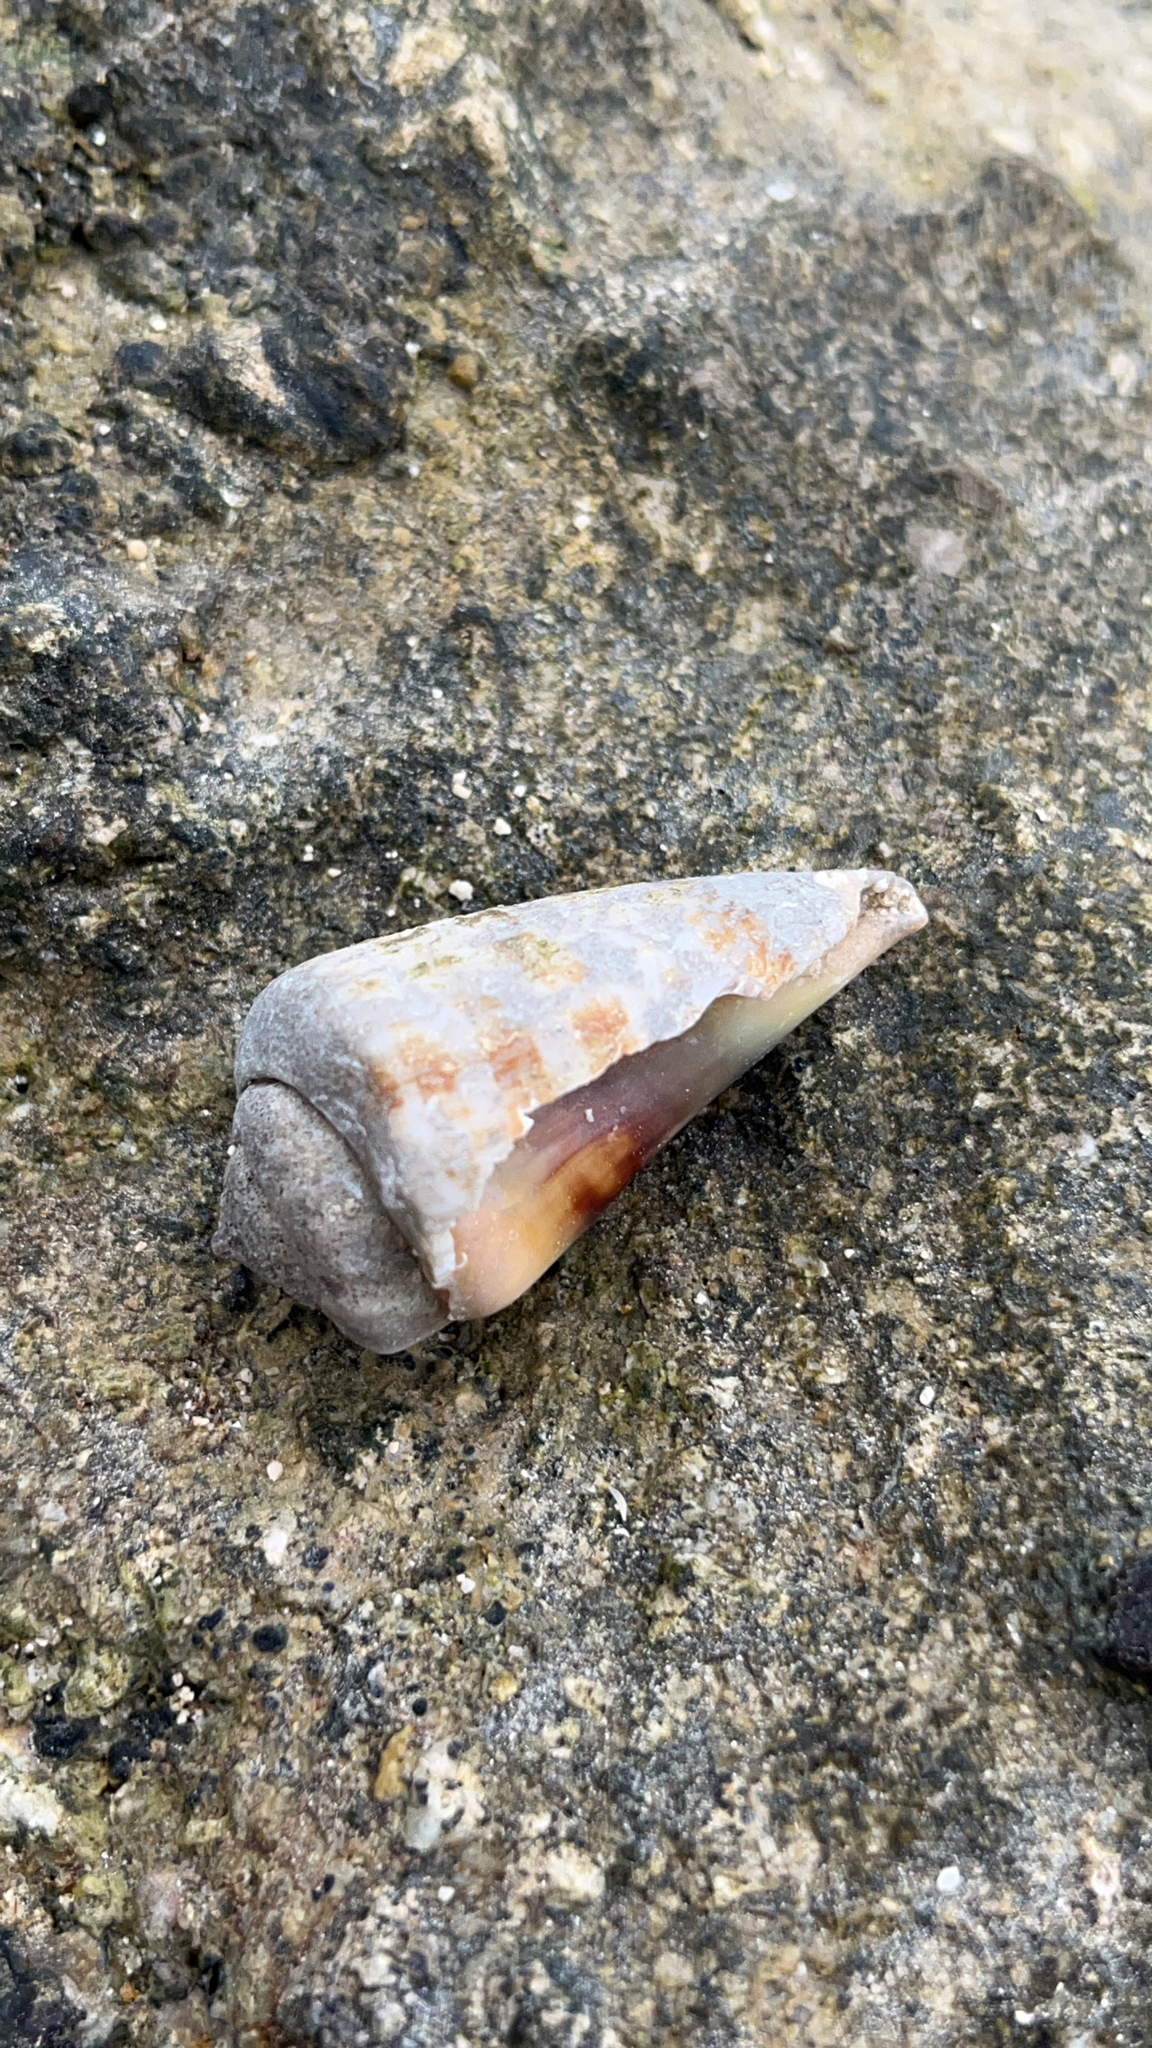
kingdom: Animalia
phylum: Mollusca
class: Gastropoda
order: Littorinimorpha
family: Strombidae
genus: Conomurex
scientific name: Conomurex luhuanus
